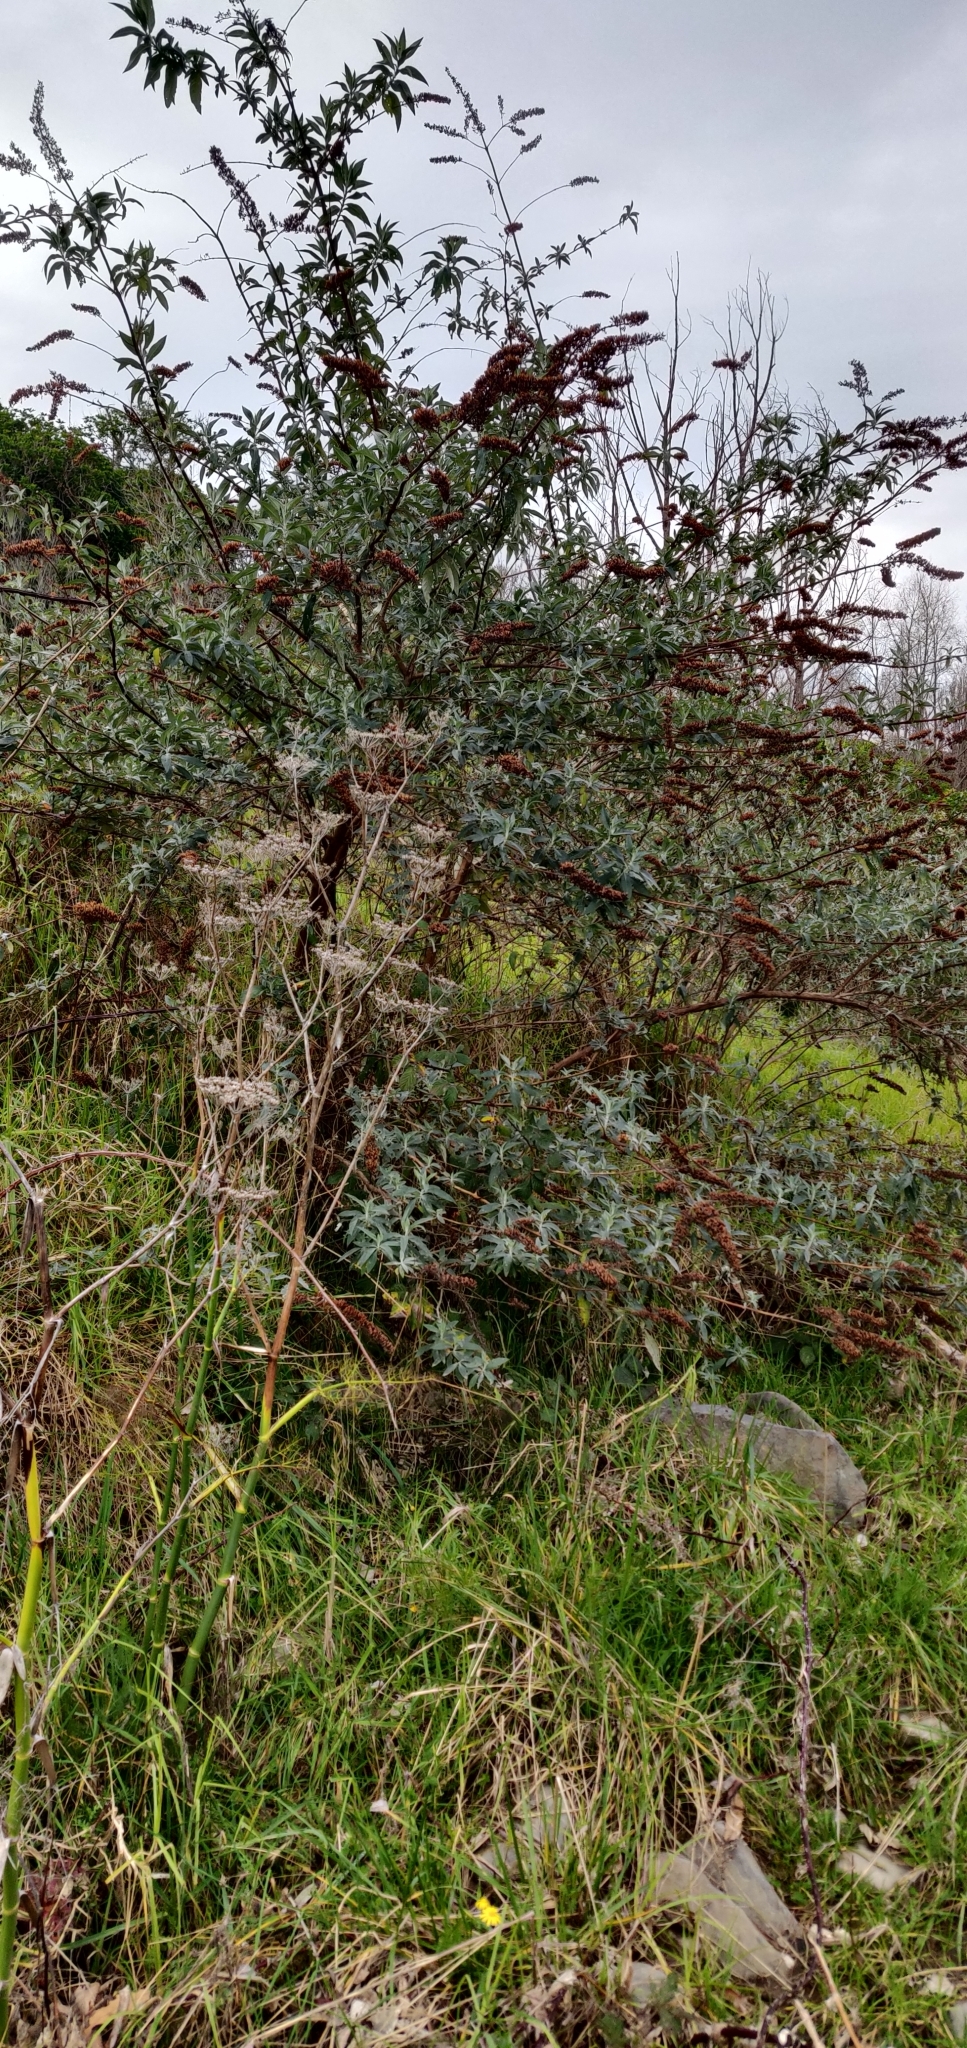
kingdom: Plantae
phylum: Tracheophyta
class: Magnoliopsida
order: Lamiales
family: Scrophulariaceae
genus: Buddleja
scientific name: Buddleja davidii
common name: Butterfly-bush
